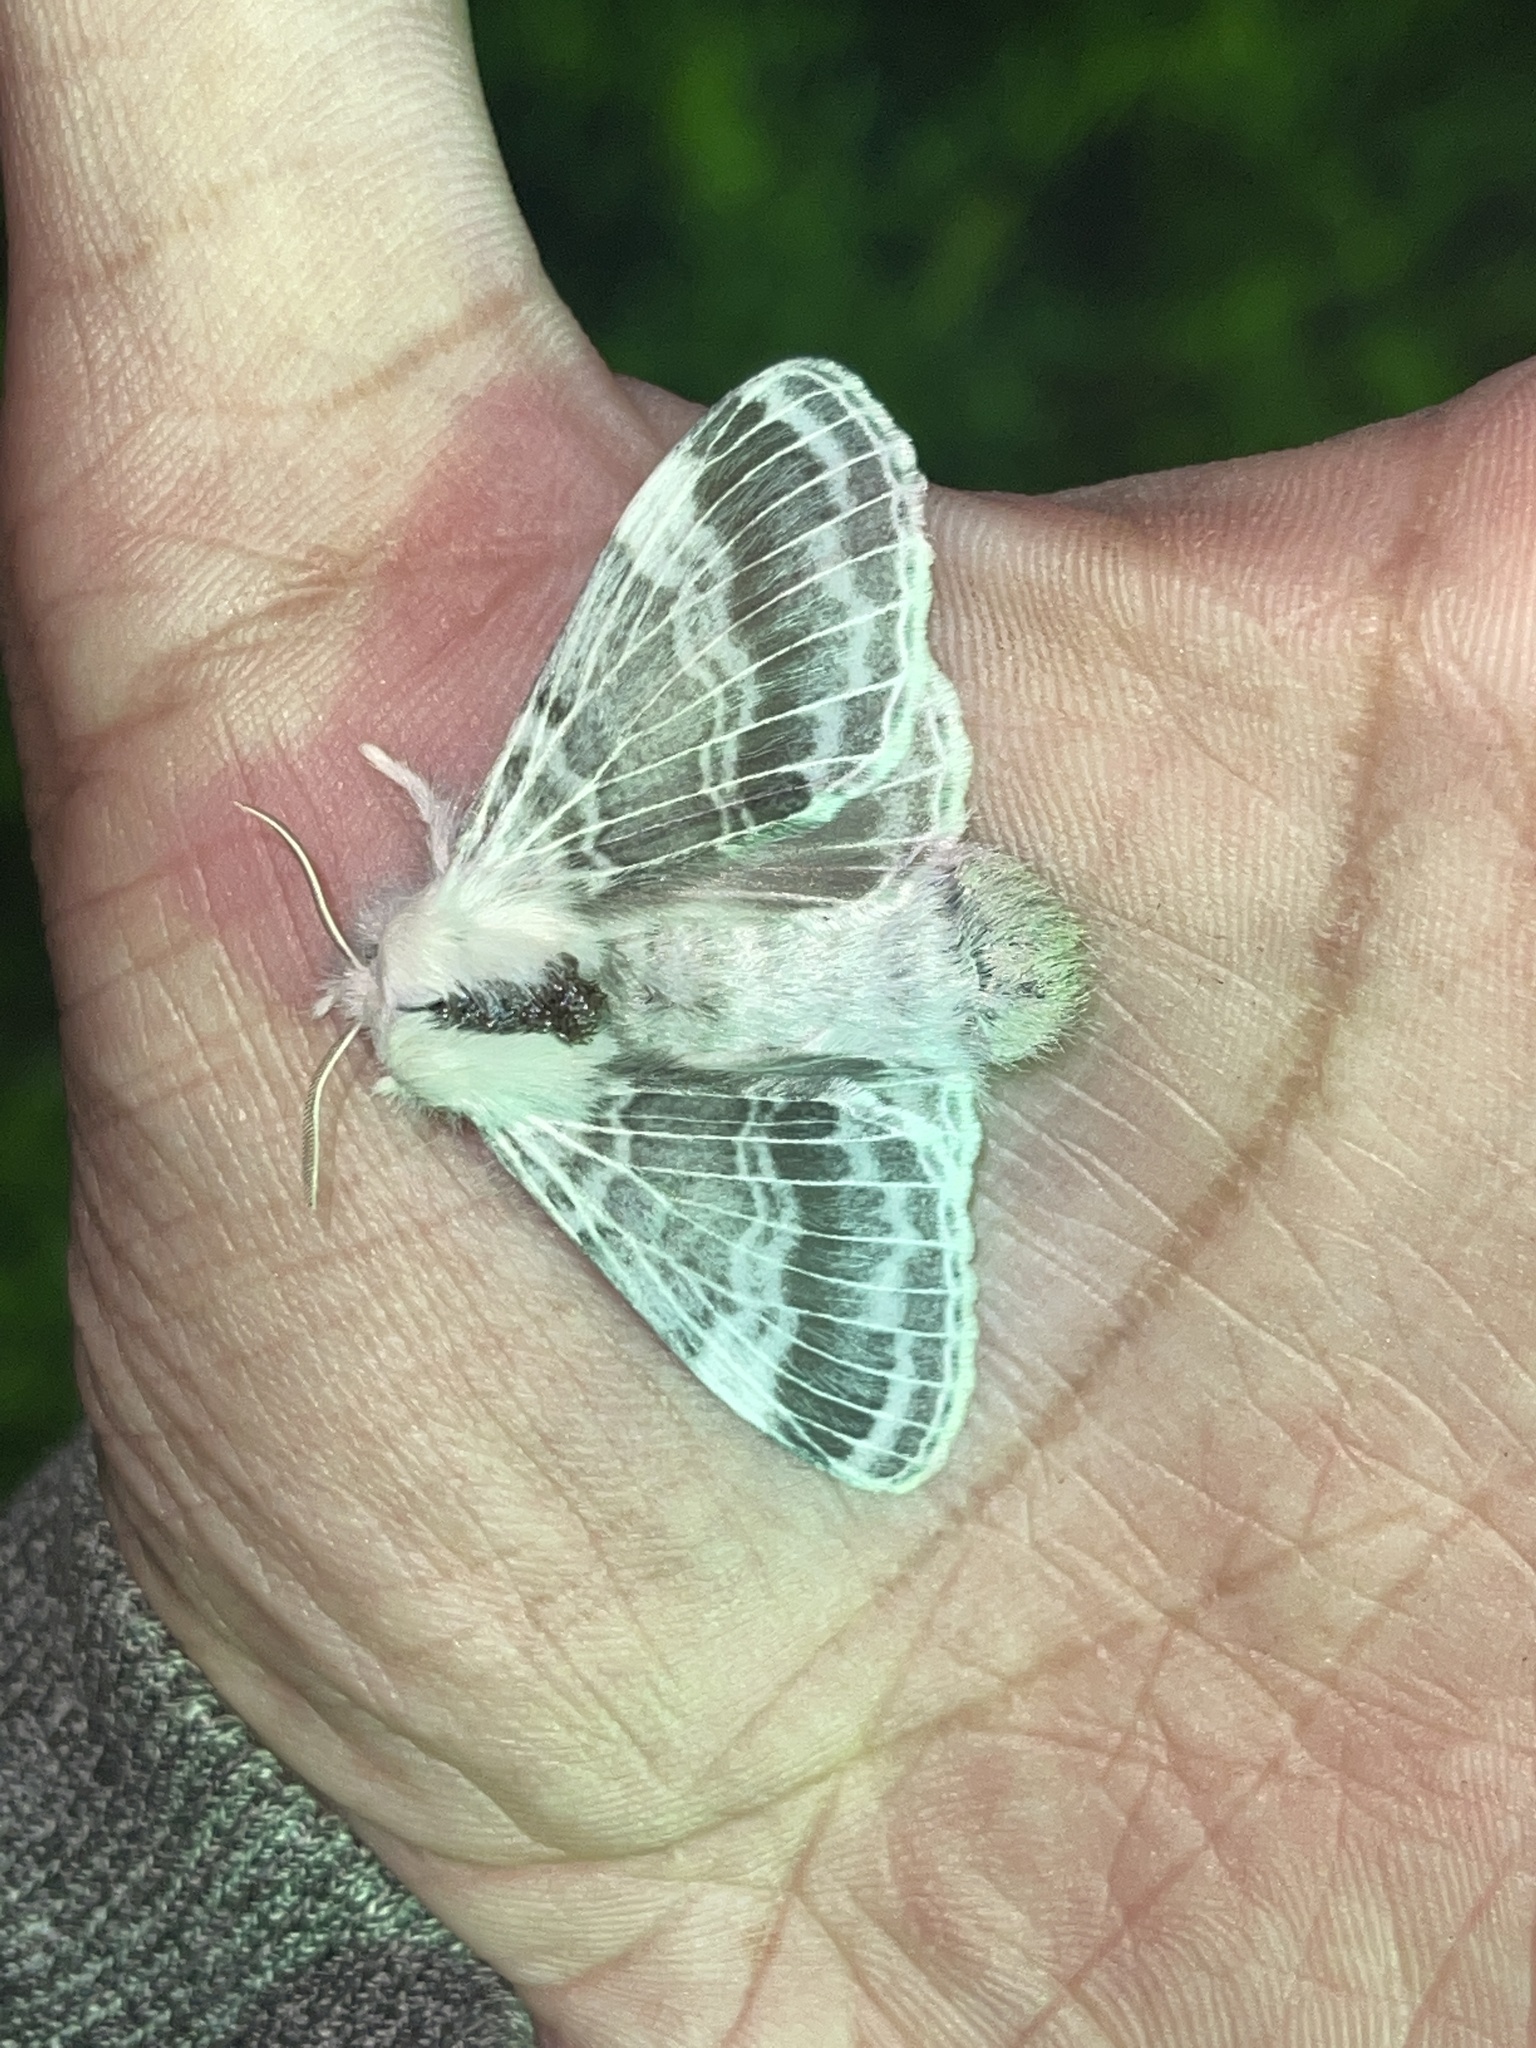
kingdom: Animalia
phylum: Arthropoda
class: Insecta
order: Lepidoptera
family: Lasiocampidae
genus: Tolype
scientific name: Tolype velleda
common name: Large tolype moth
